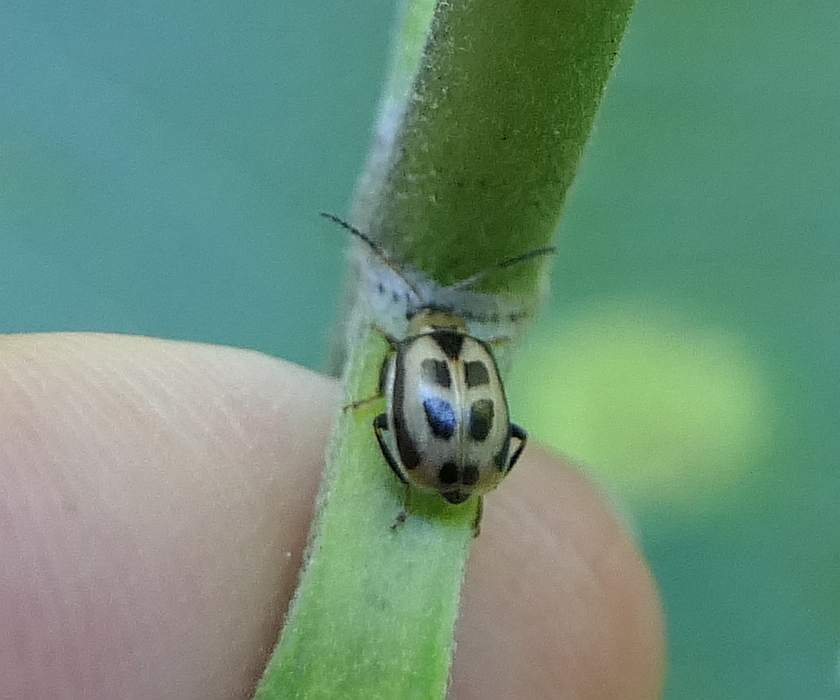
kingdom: Animalia
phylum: Arthropoda
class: Insecta
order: Coleoptera
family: Chrysomelidae
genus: Cerotoma
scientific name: Cerotoma trifurcata
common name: Bean leaf beetle
